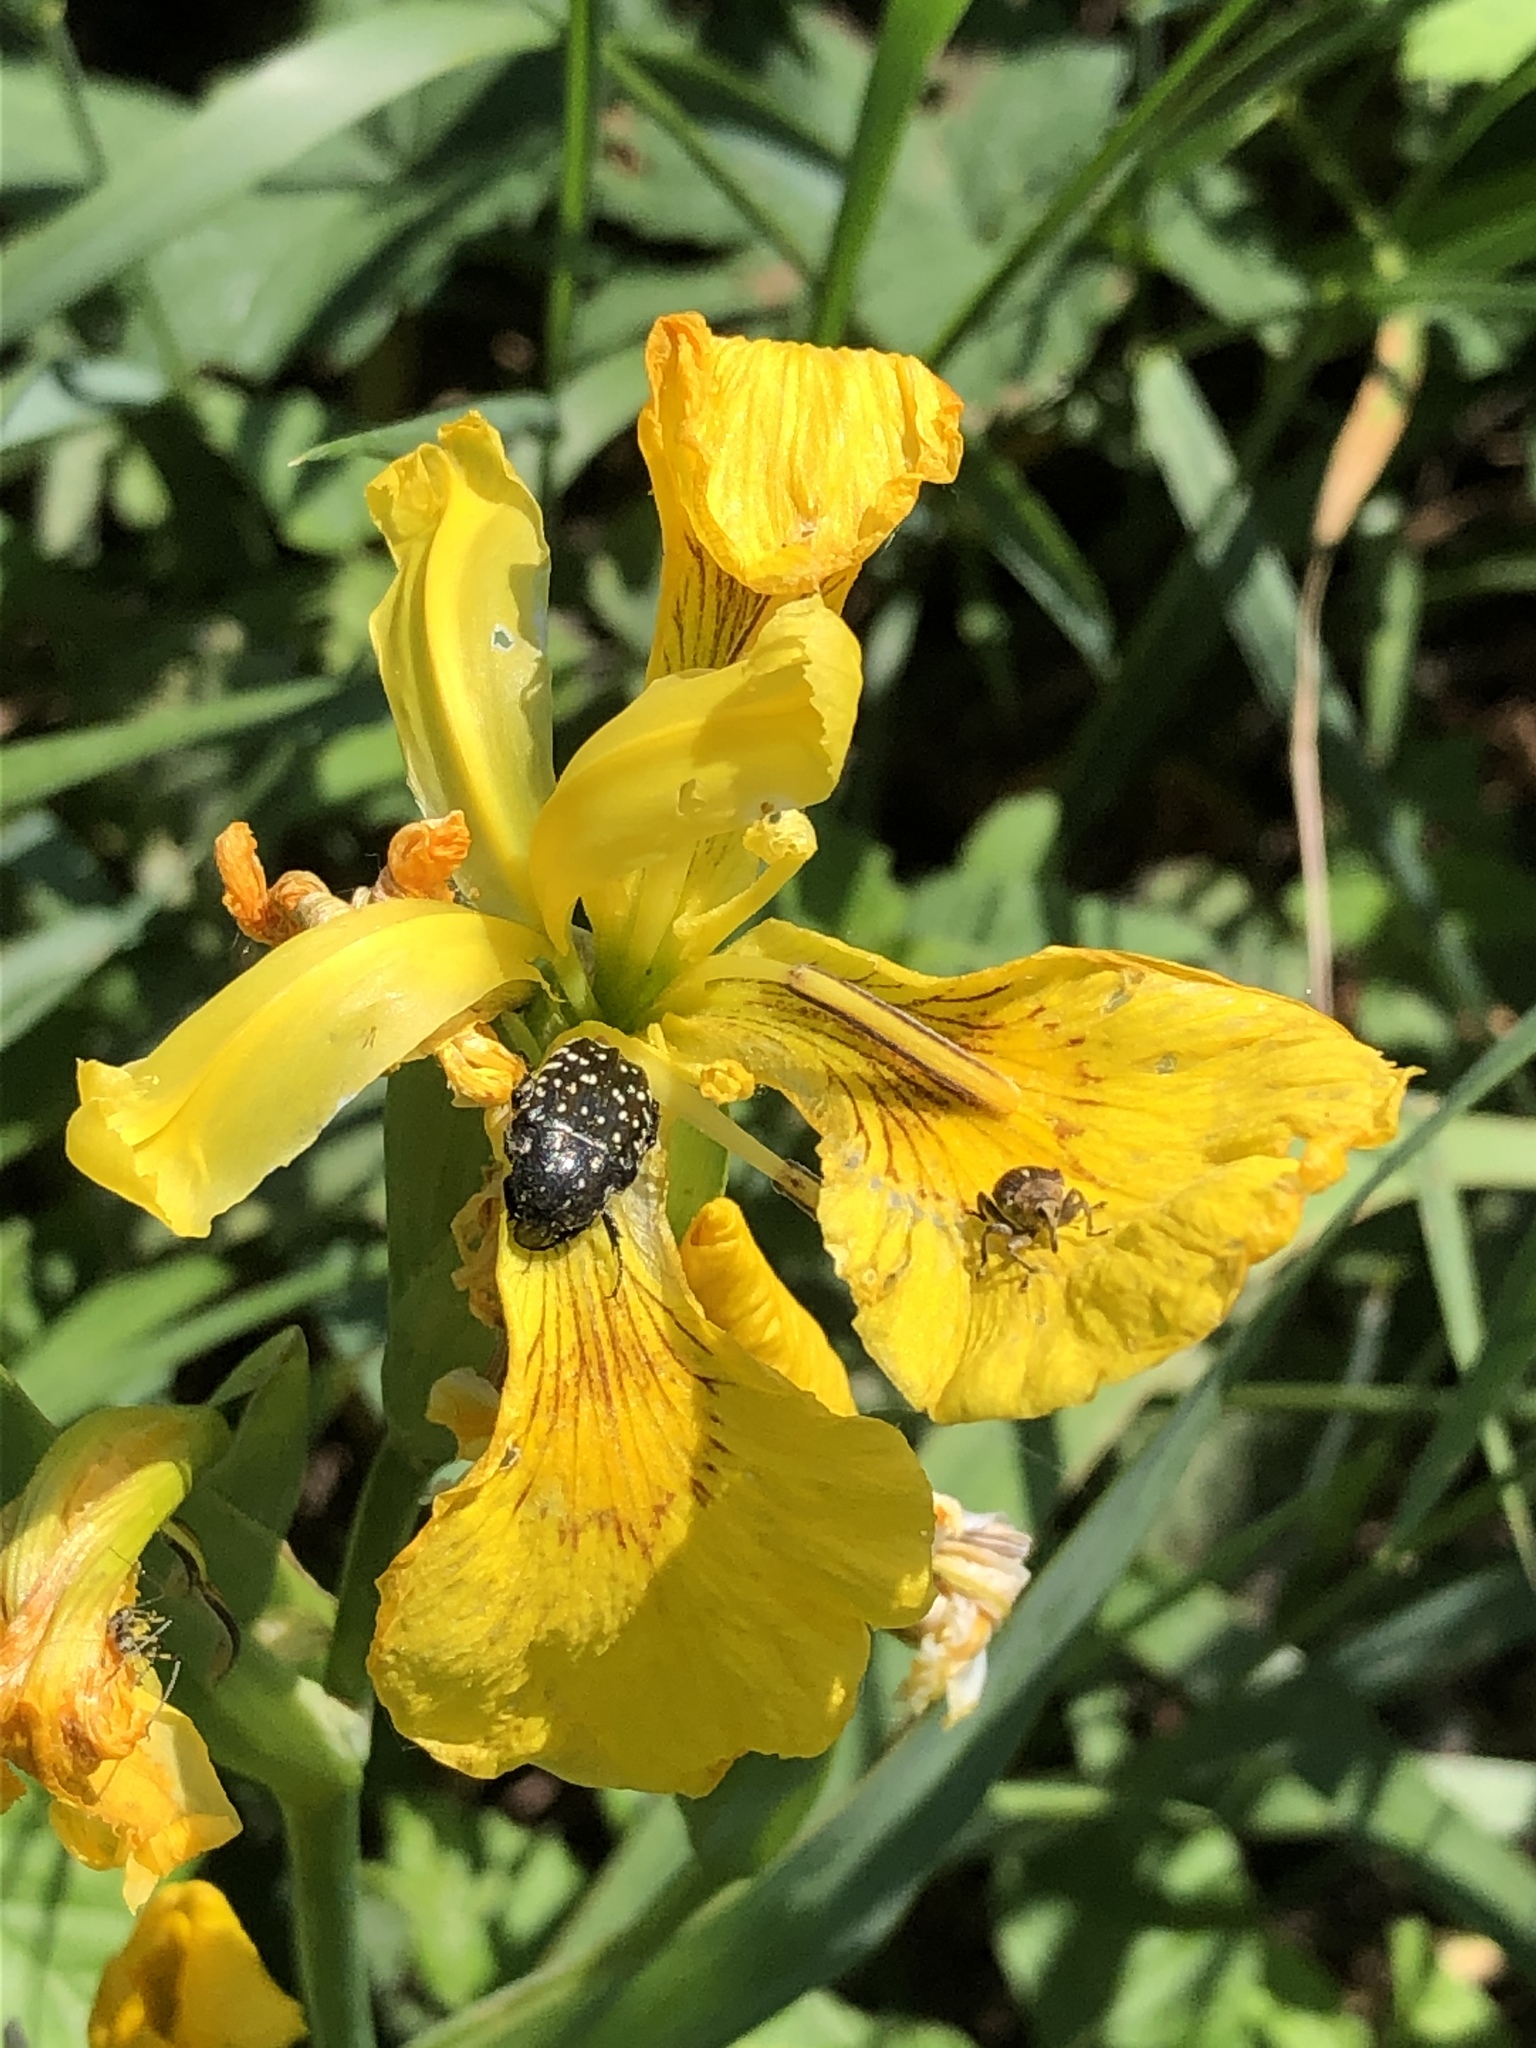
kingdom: Plantae
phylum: Tracheophyta
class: Liliopsida
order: Asparagales
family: Iridaceae
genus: Iris
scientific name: Iris pseudacorus
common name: Yellow flag
